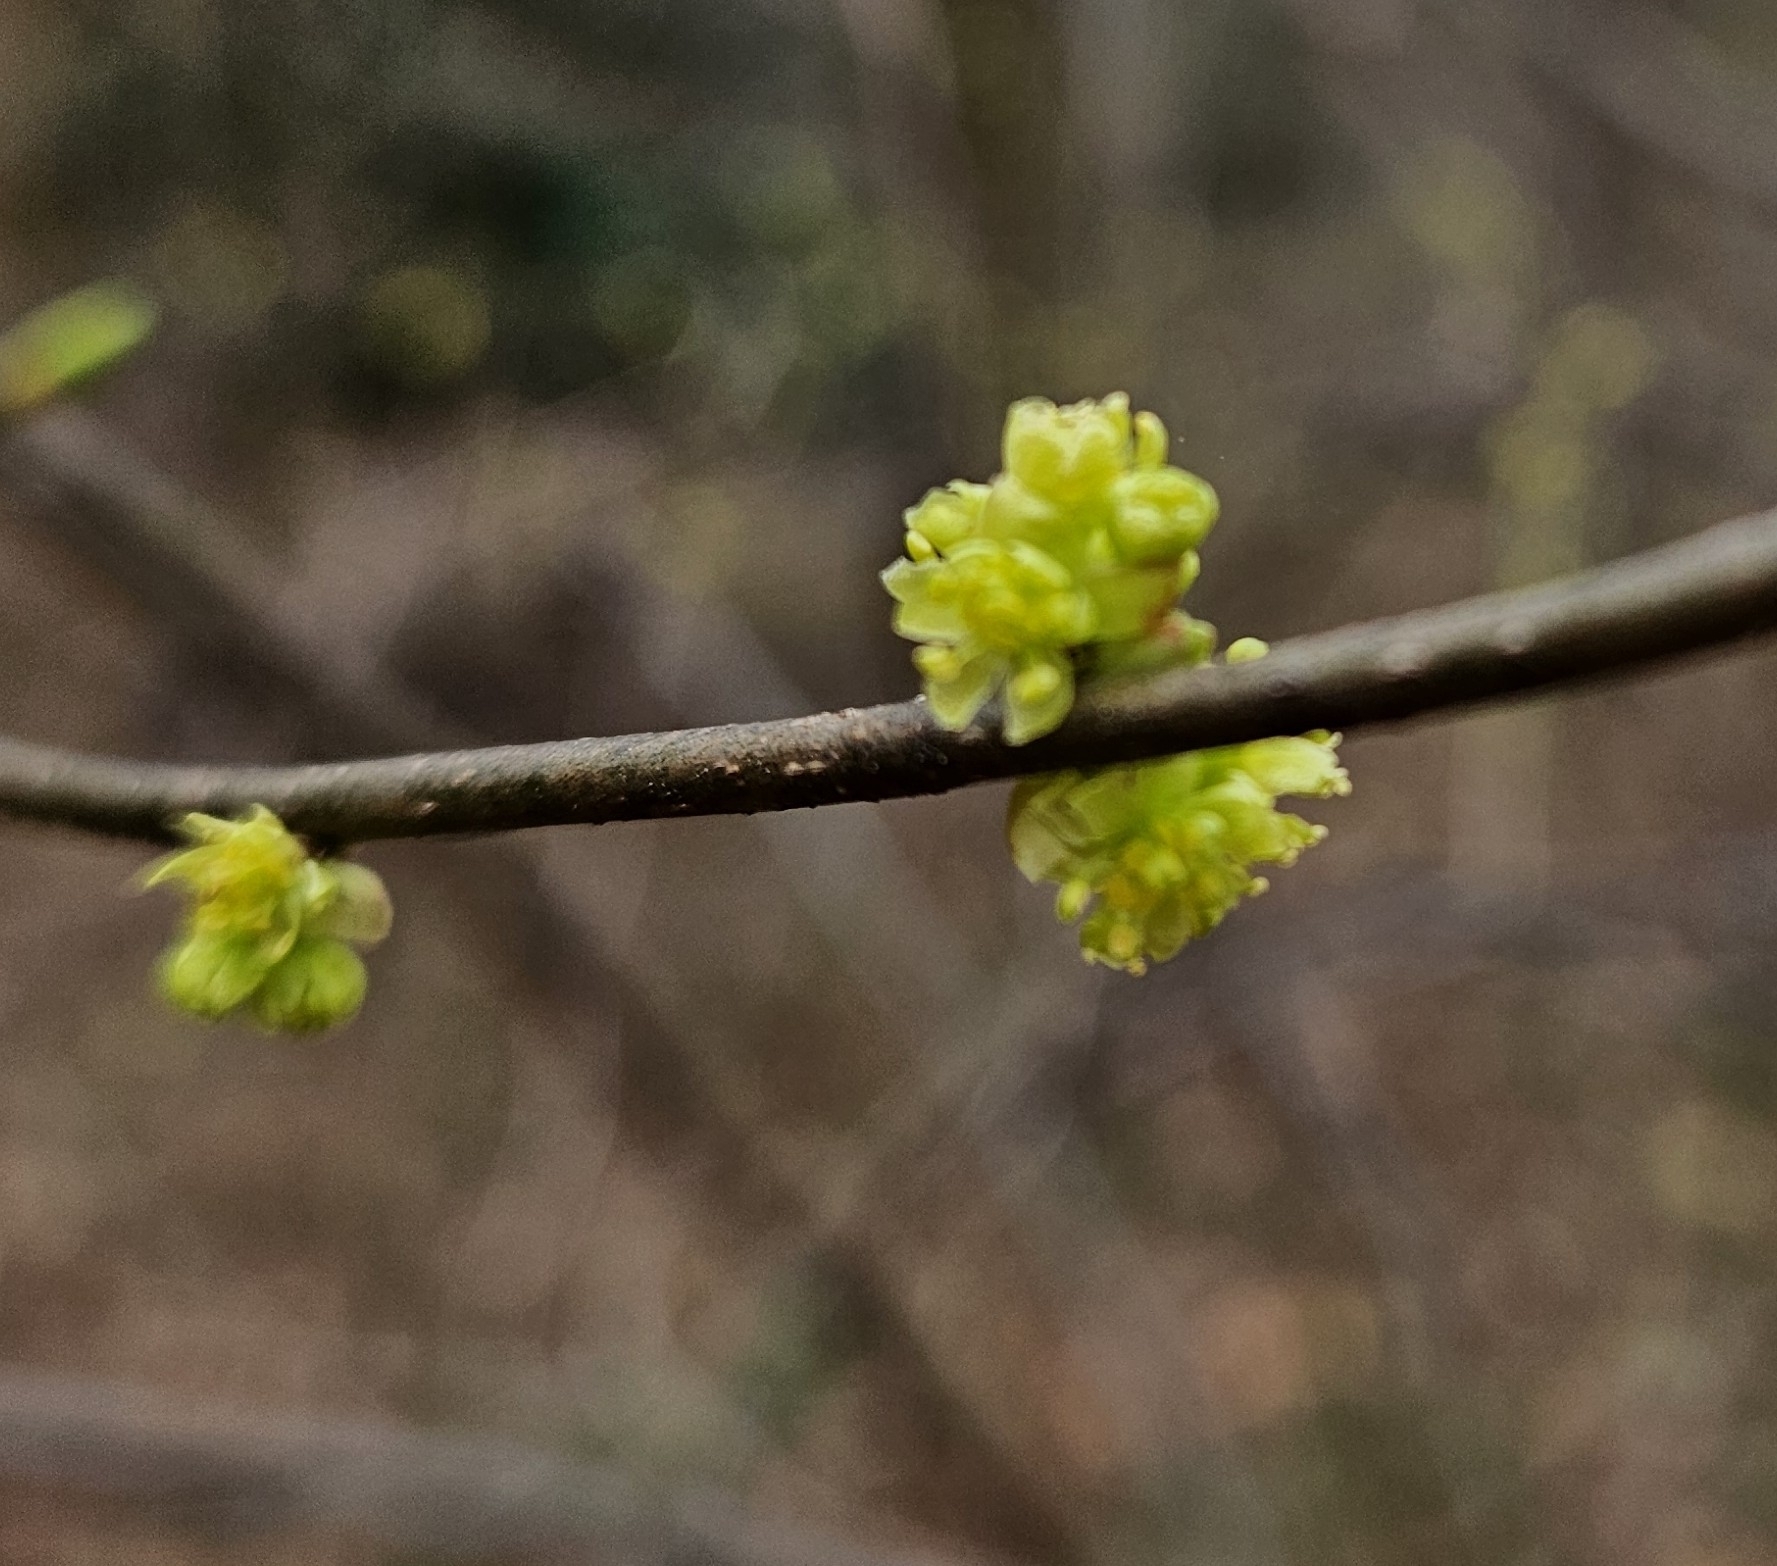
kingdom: Plantae
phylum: Tracheophyta
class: Magnoliopsida
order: Laurales
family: Lauraceae
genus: Lindera
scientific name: Lindera benzoin
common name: Spicebush
